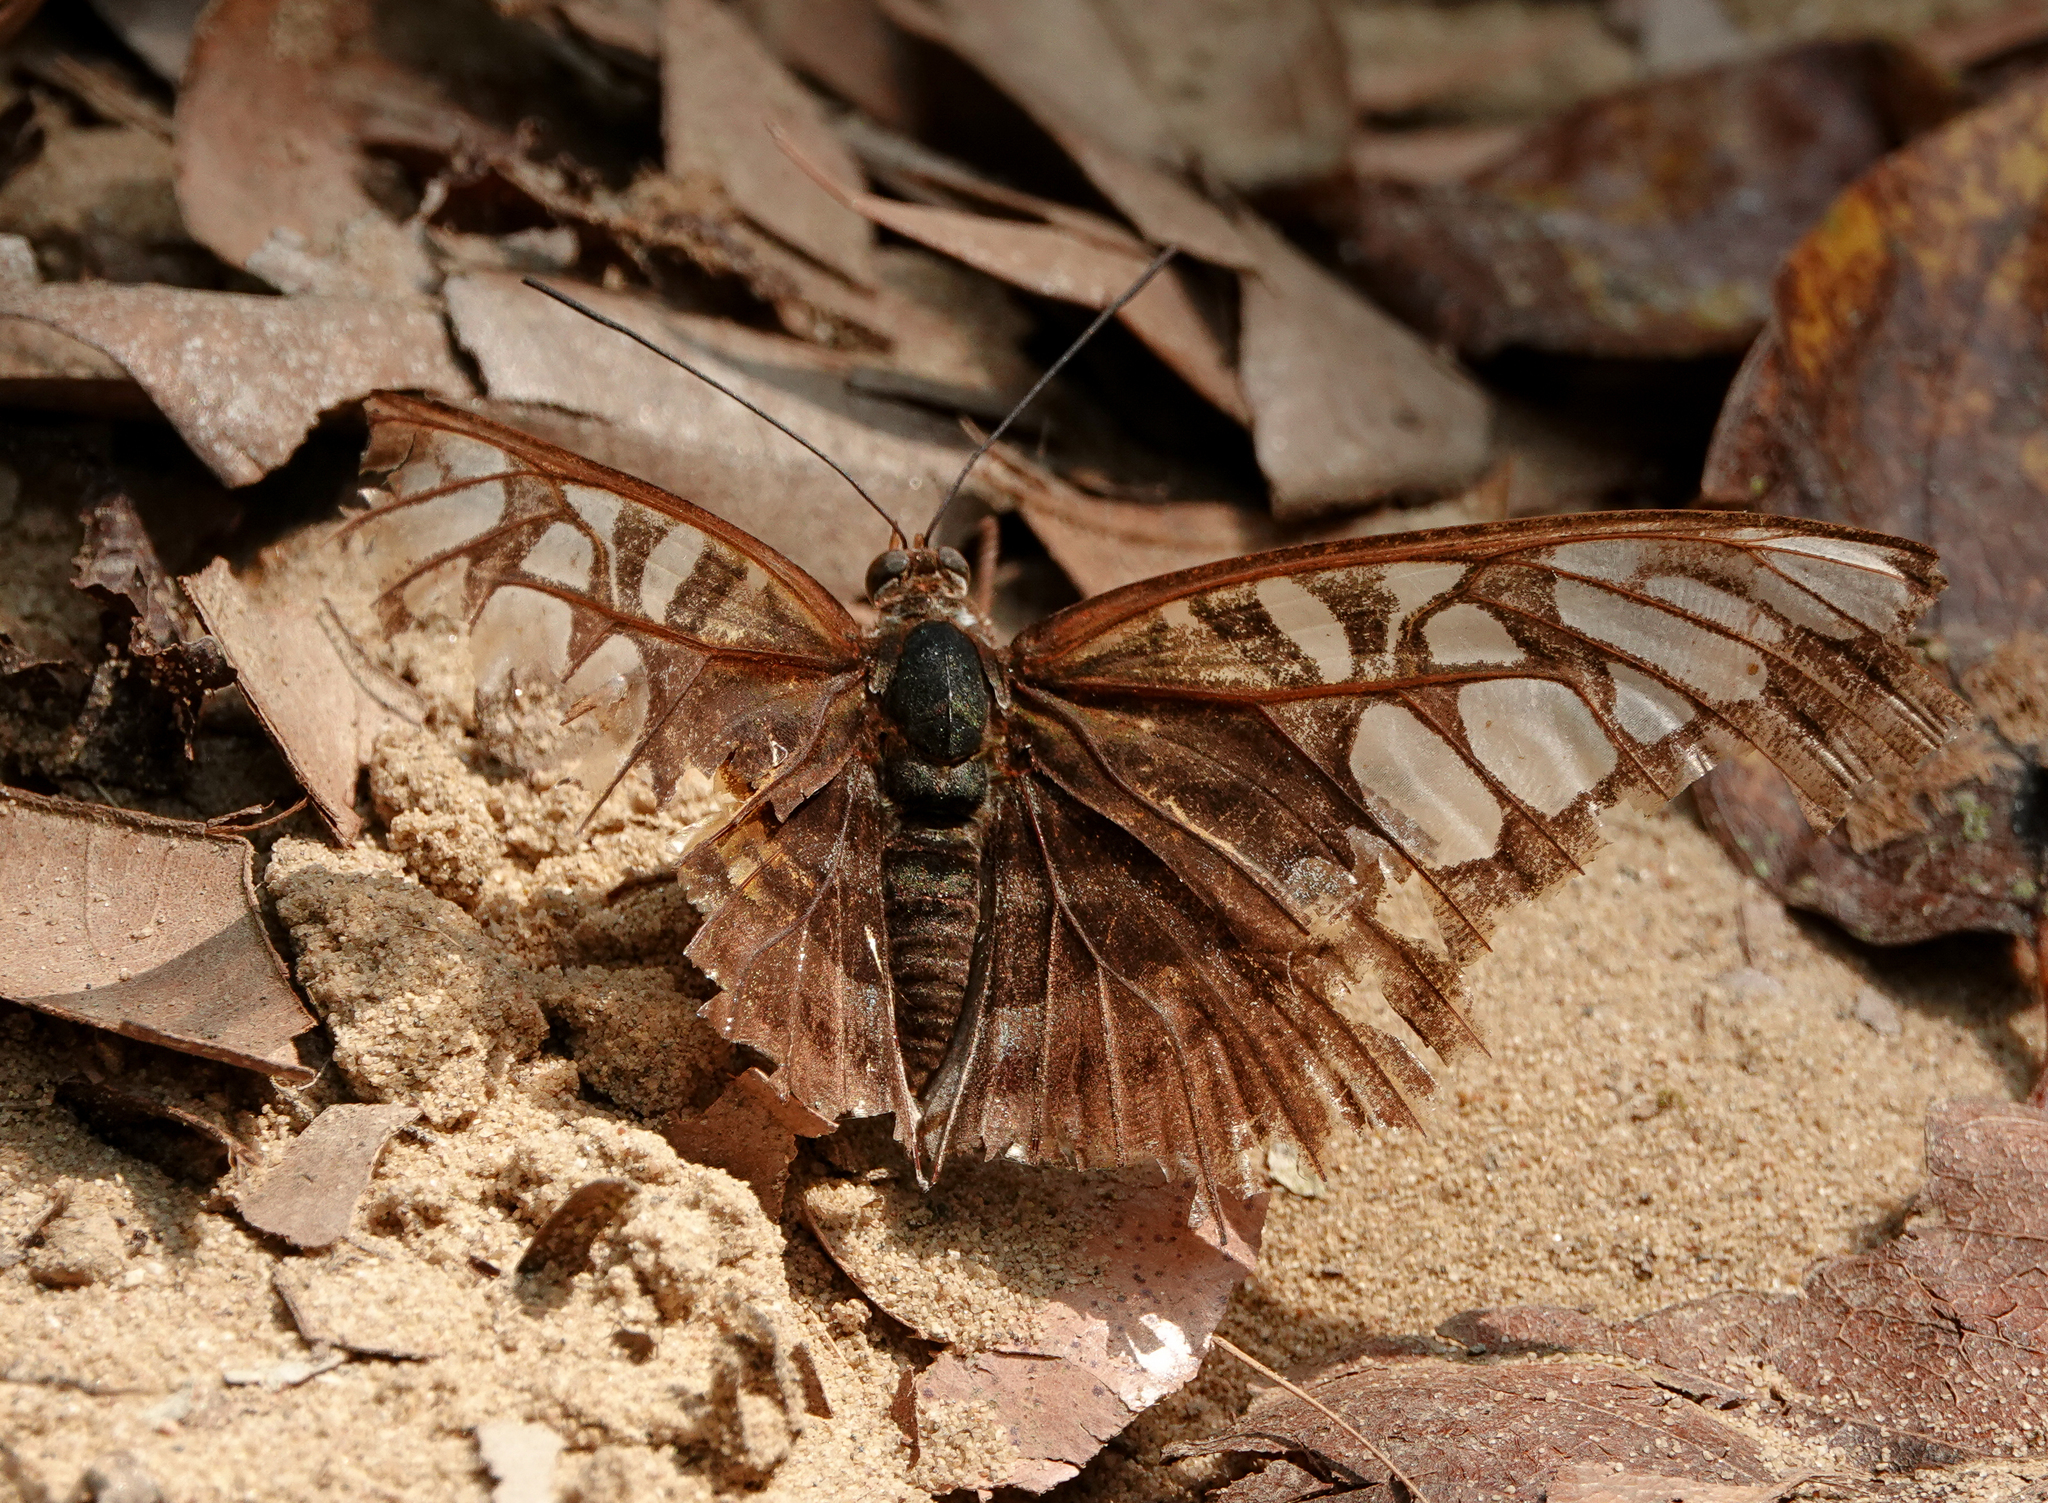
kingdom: Animalia
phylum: Arthropoda
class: Insecta
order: Lepidoptera
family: Nymphalidae
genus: Kallima
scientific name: Kallima sylvia
